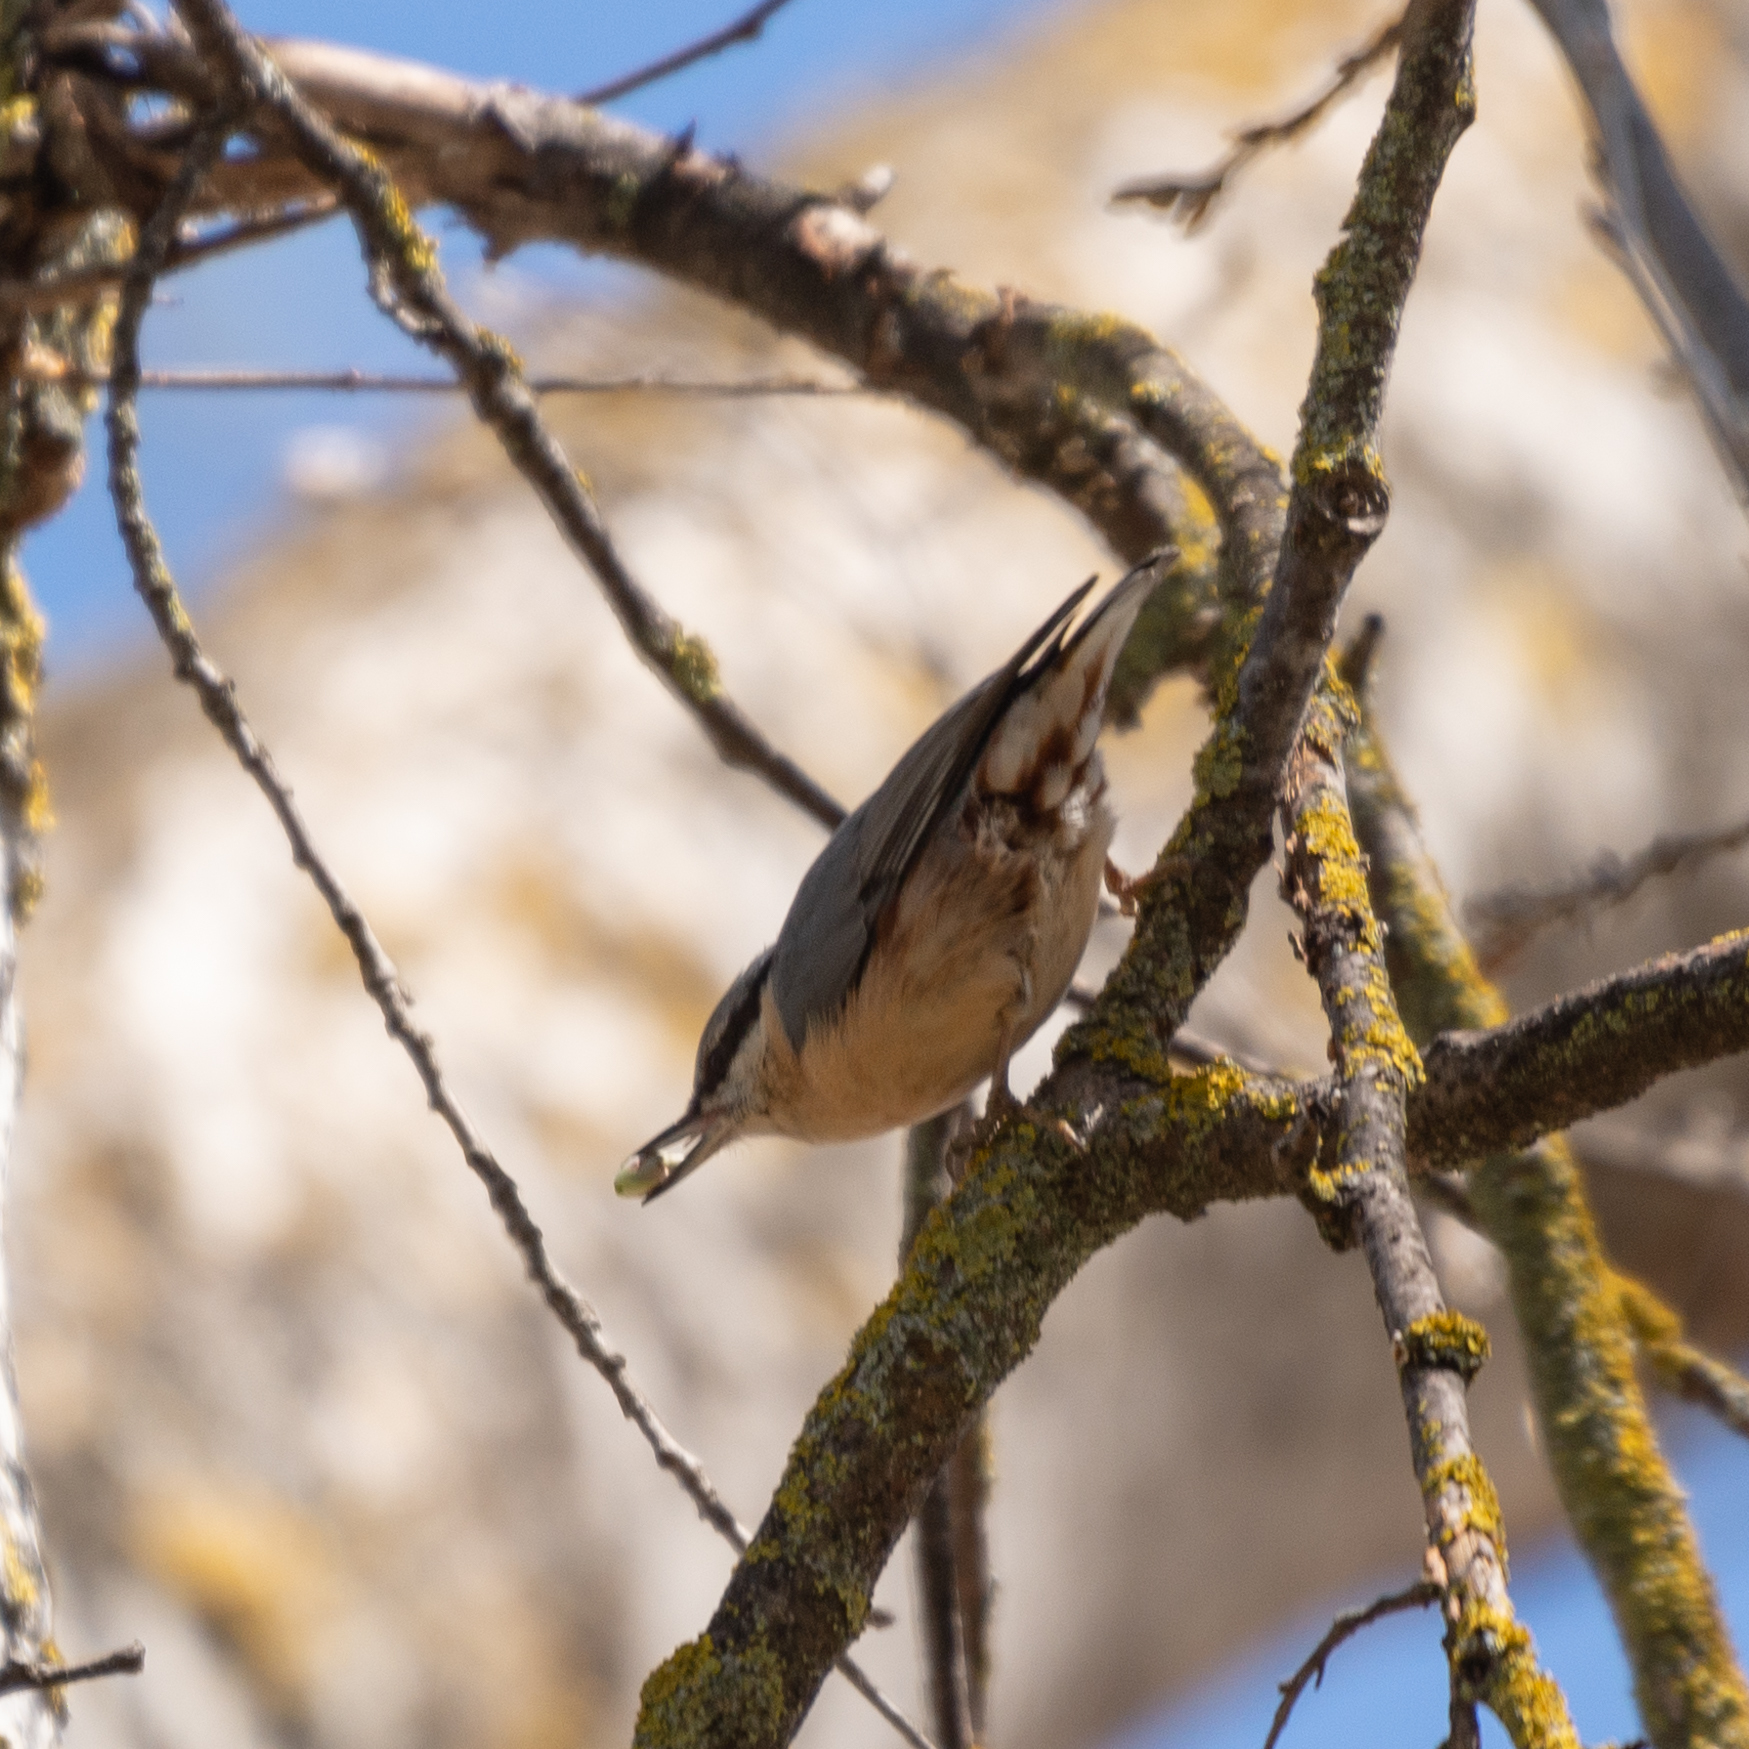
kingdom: Animalia
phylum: Chordata
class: Aves
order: Passeriformes
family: Sittidae
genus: Sitta
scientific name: Sitta europaea
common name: Eurasian nuthatch
